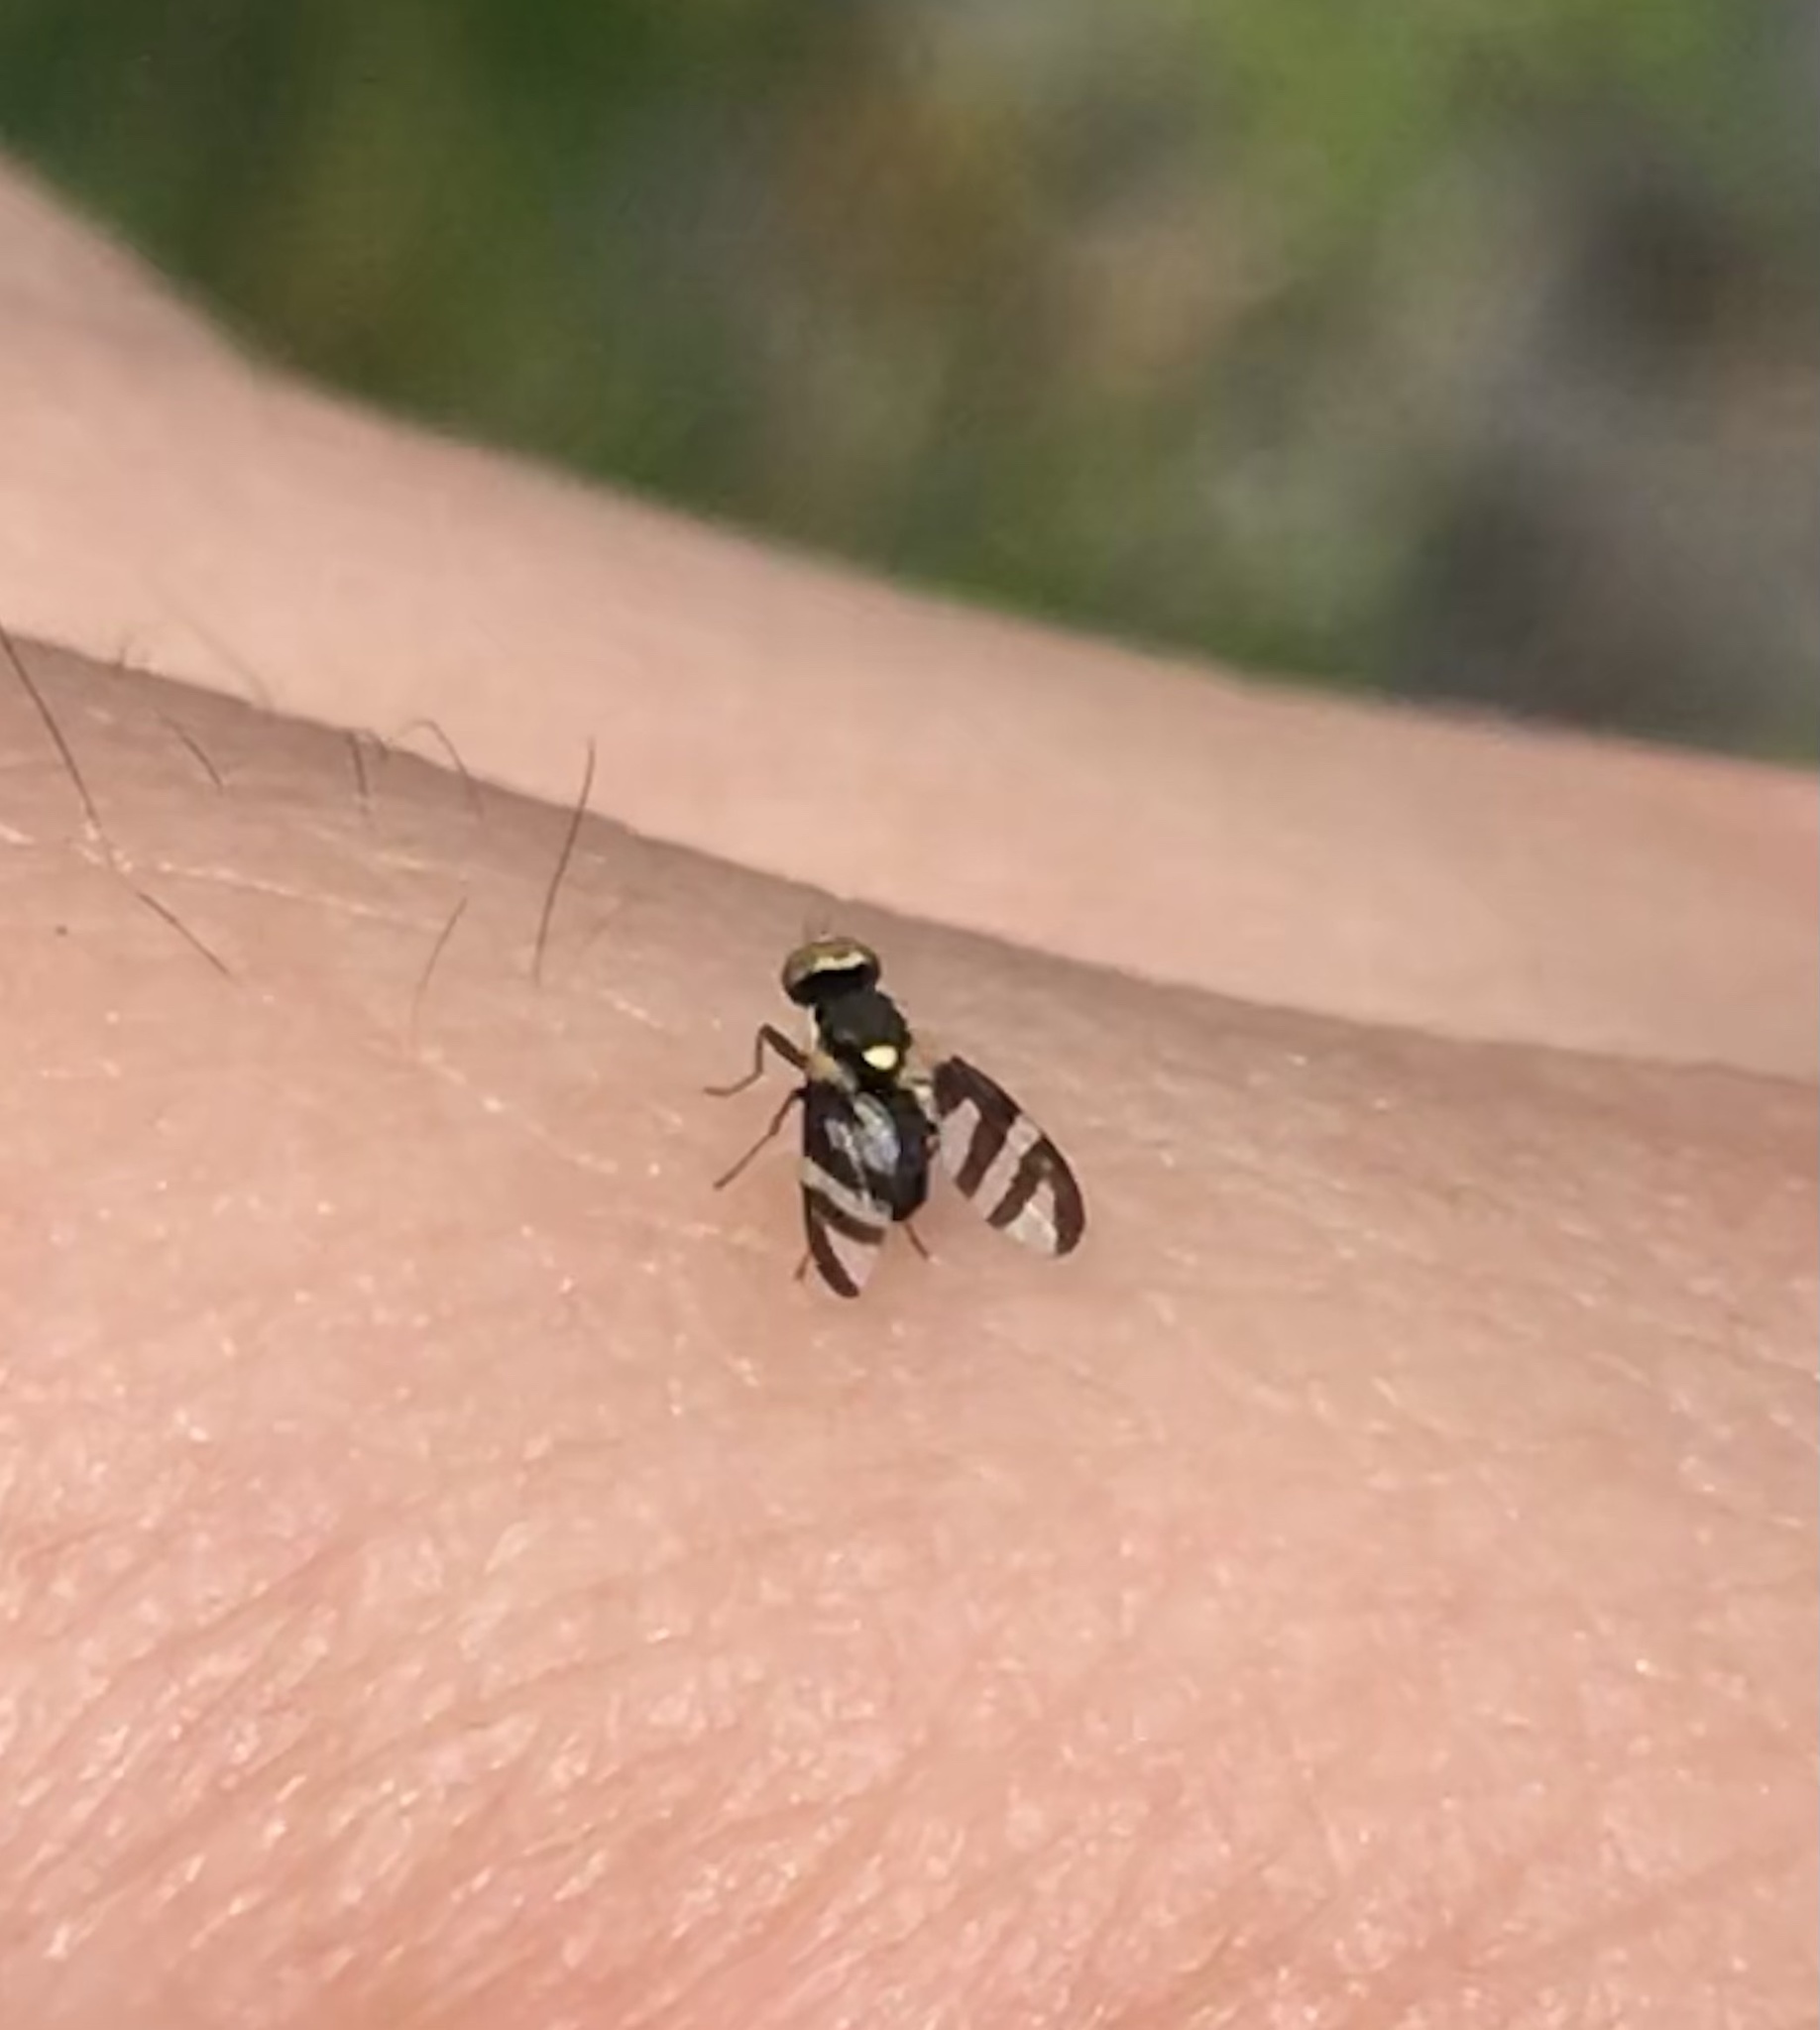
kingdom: Animalia
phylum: Arthropoda
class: Insecta
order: Diptera
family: Tephritidae
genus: Urophora
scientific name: Urophora quadrifasciata
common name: Knapweed seedhead fly
